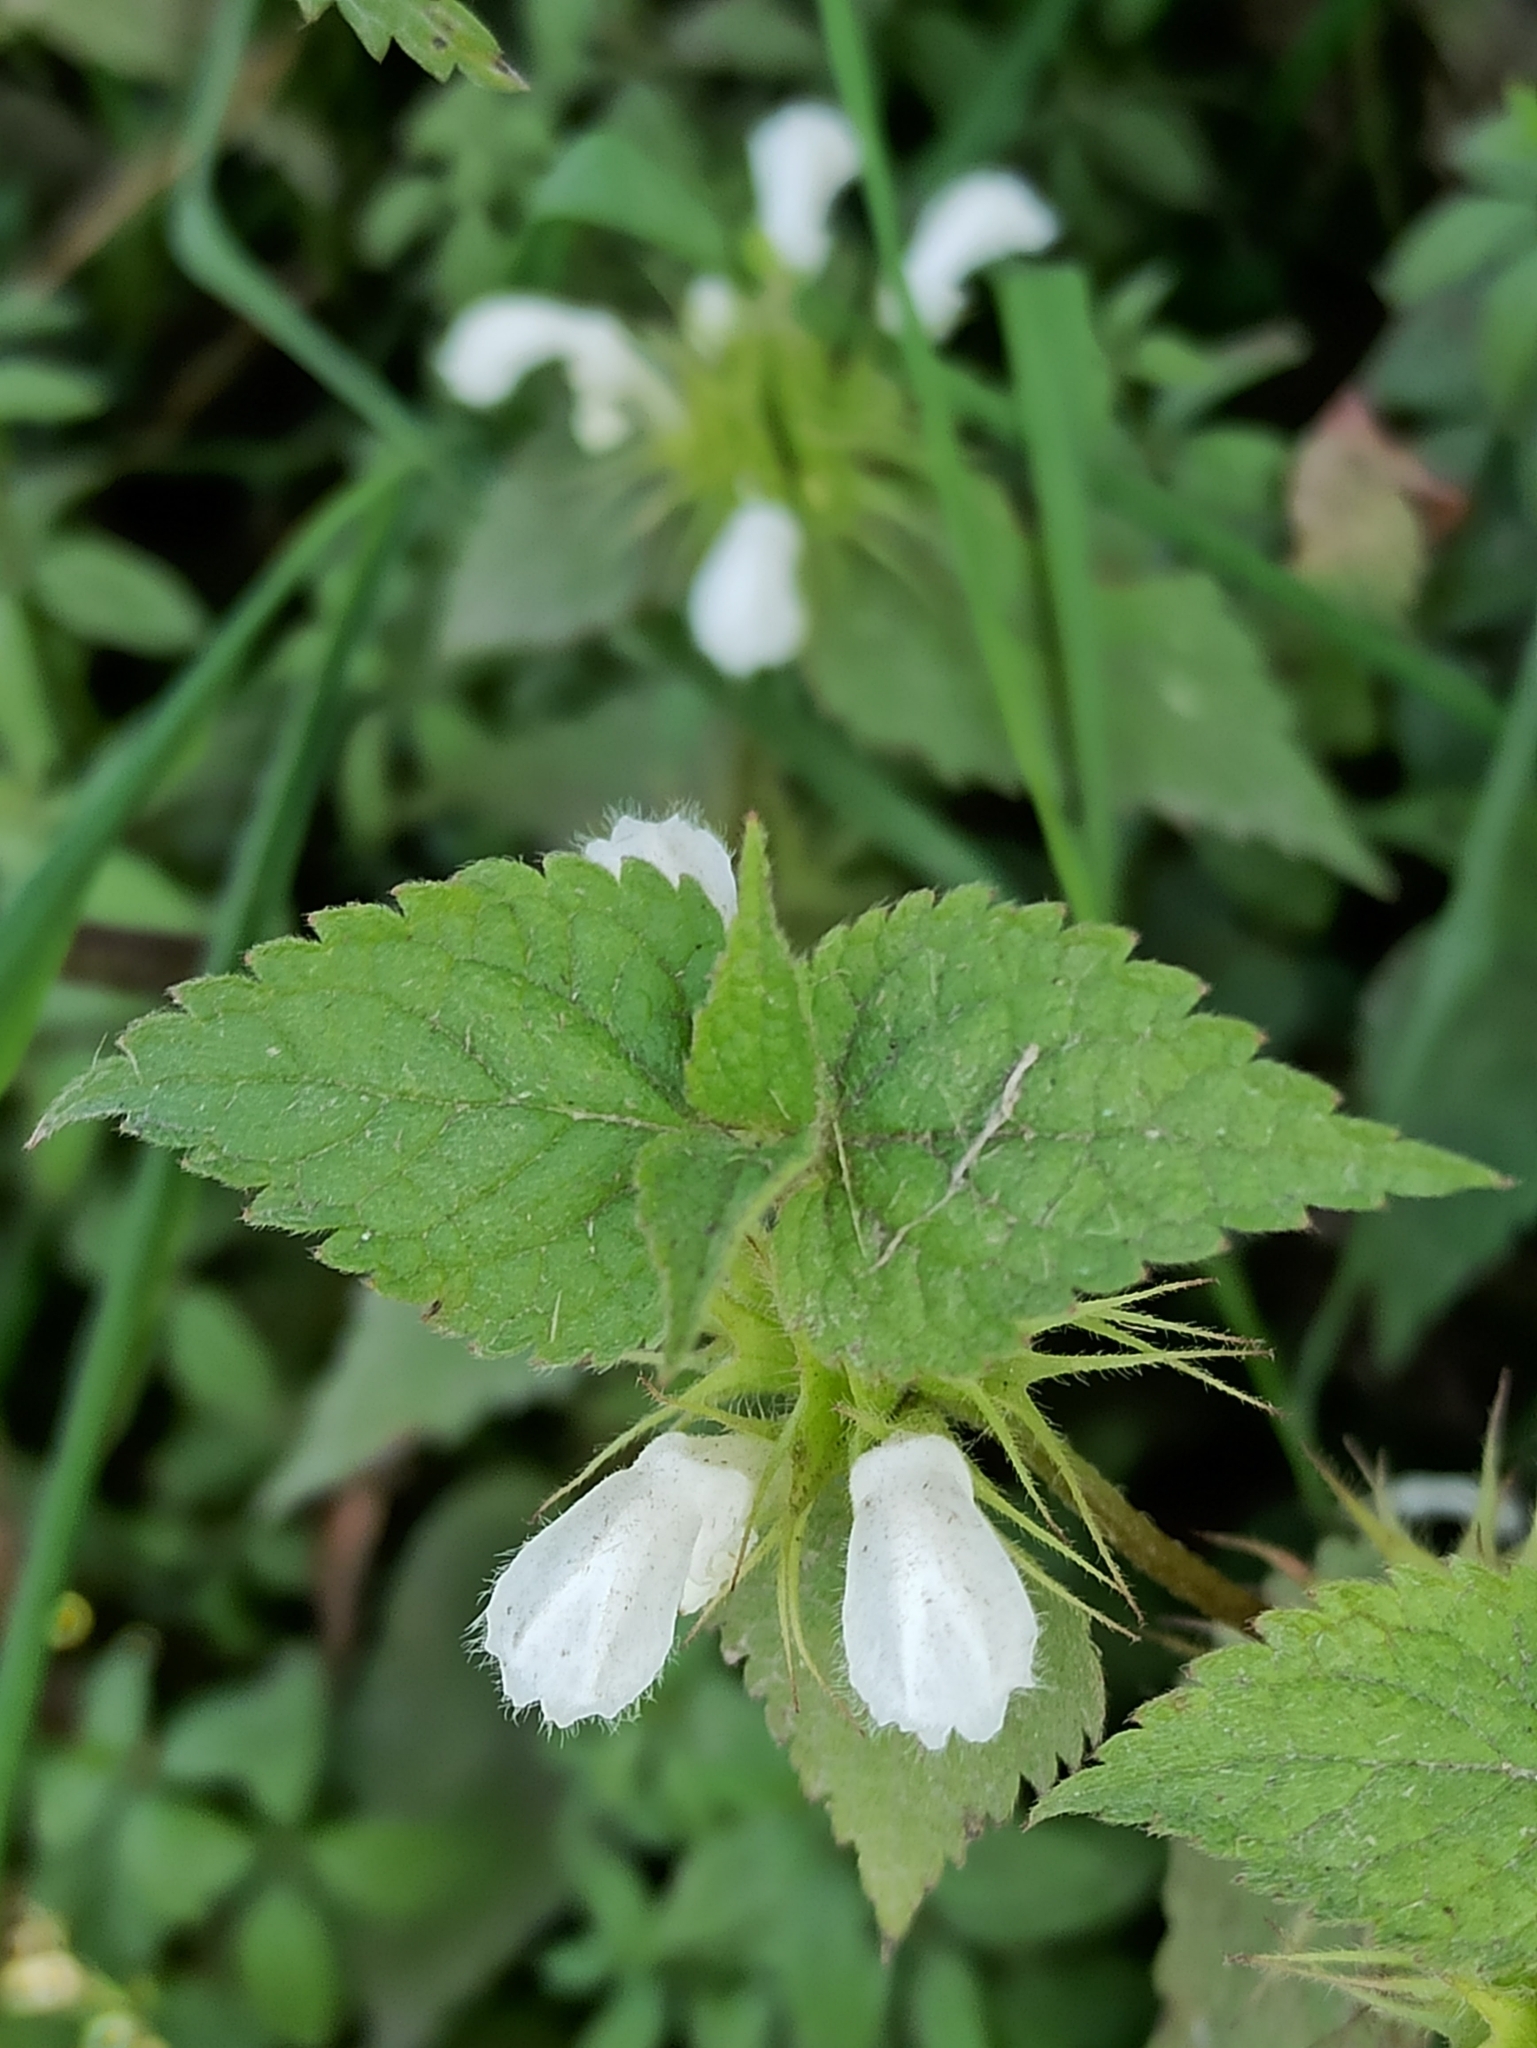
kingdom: Plantae
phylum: Tracheophyta
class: Magnoliopsida
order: Lamiales
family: Lamiaceae
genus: Lamium
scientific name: Lamium album
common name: White dead-nettle
